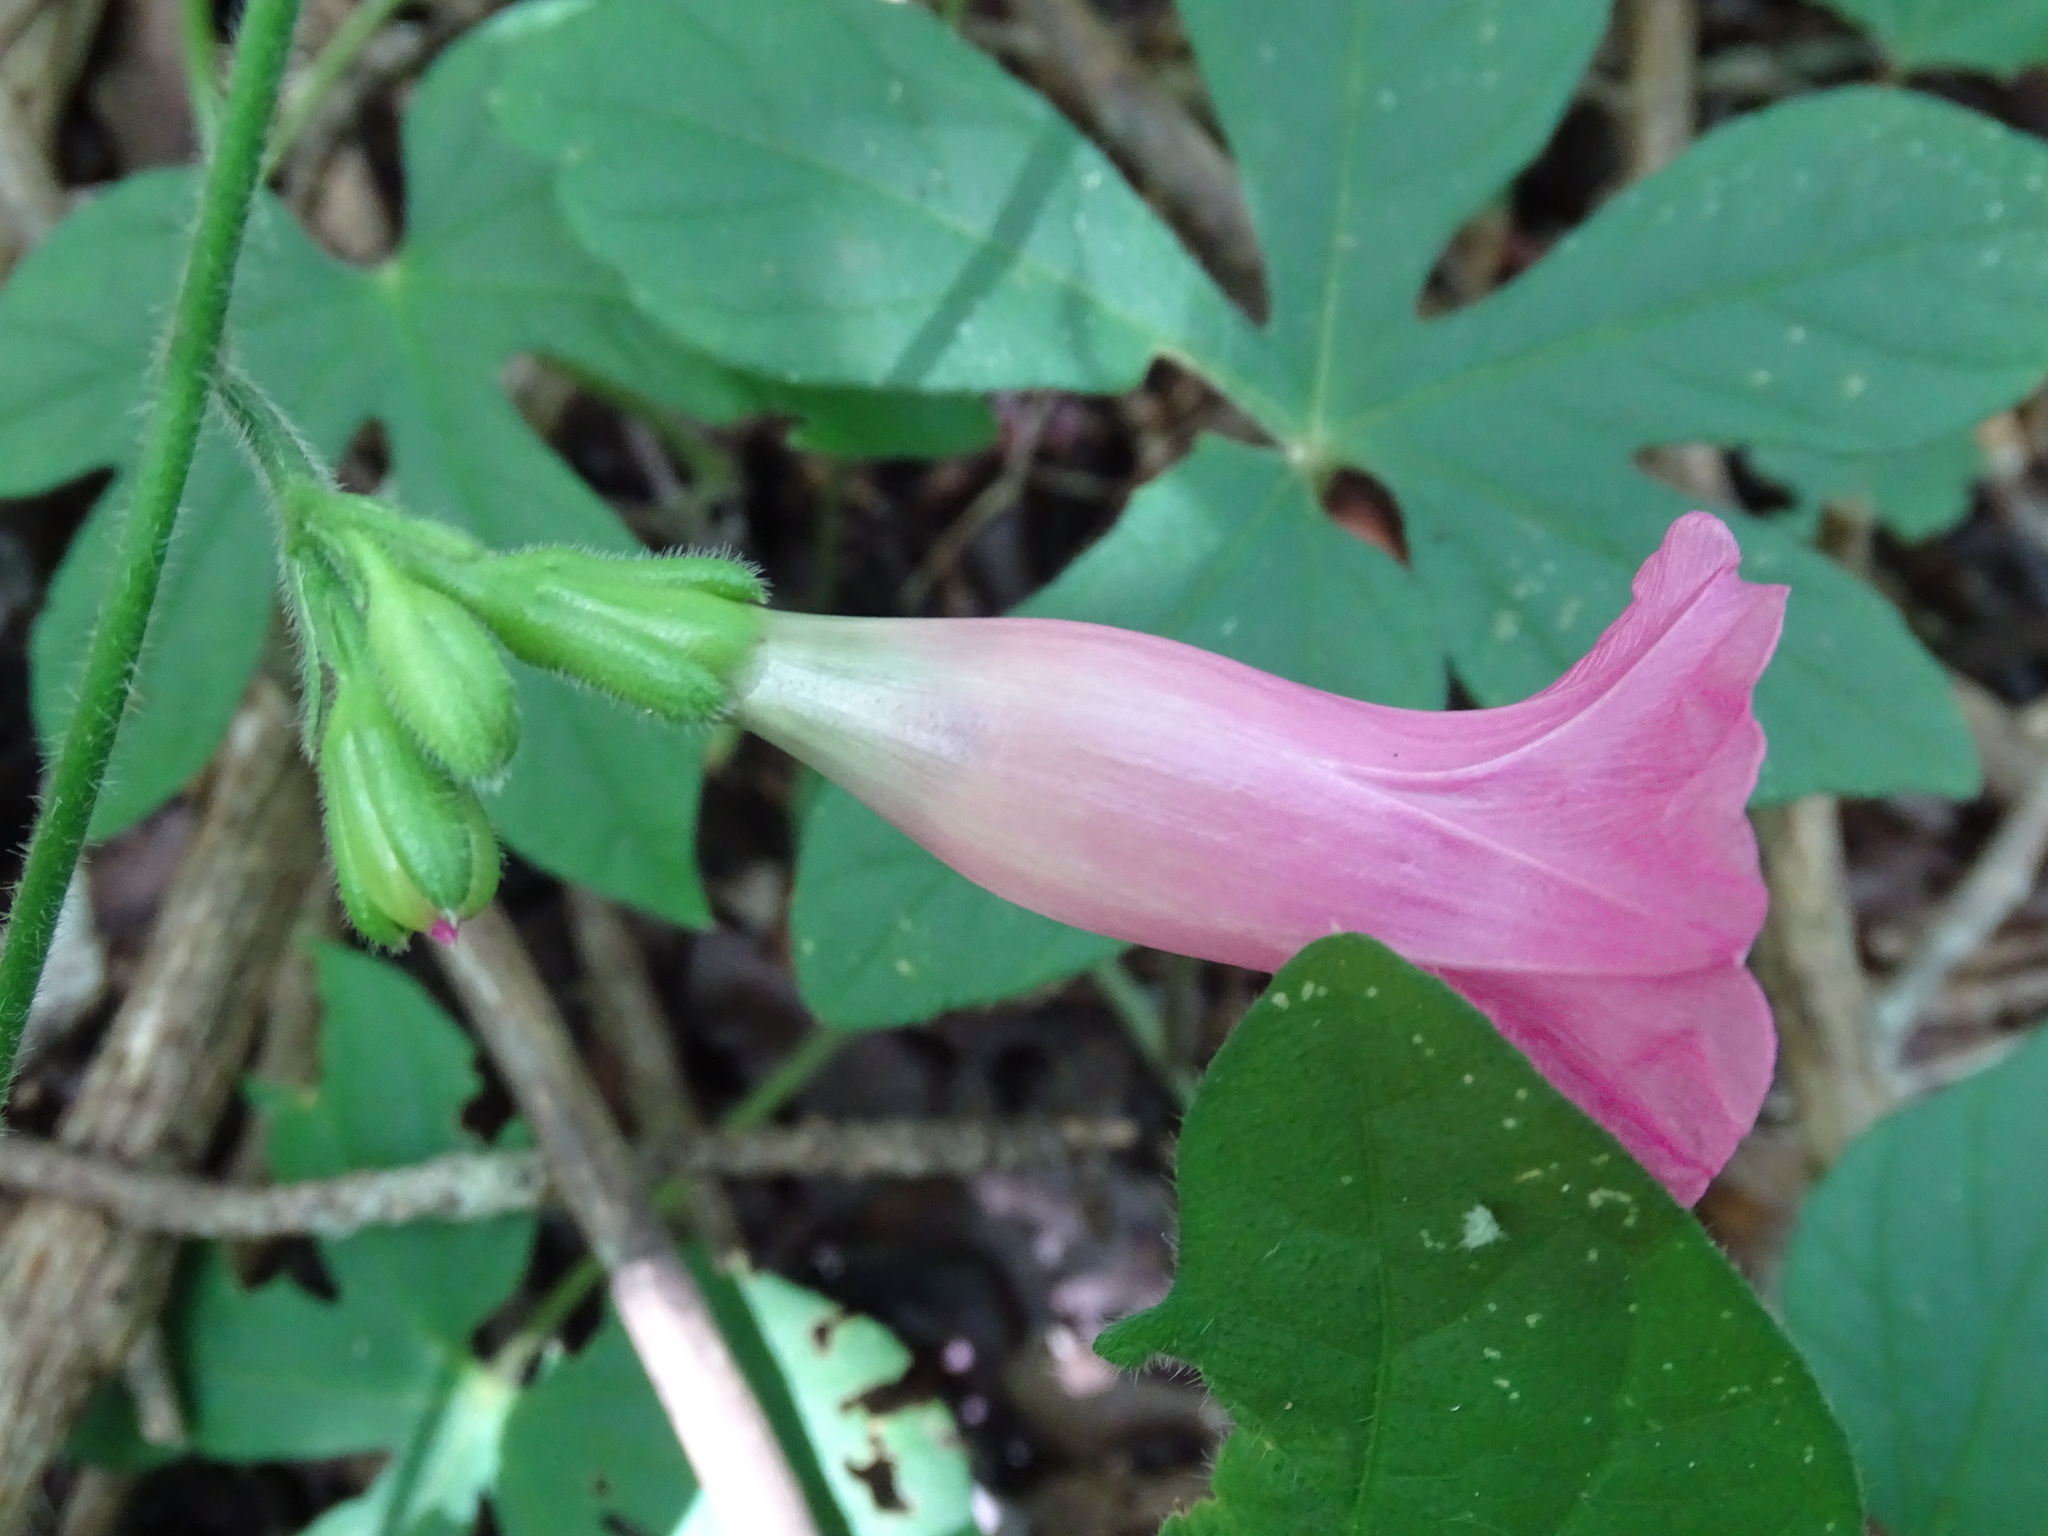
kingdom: Plantae
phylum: Tracheophyta
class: Magnoliopsida
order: Solanales
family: Convolvulaceae
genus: Ipomoea
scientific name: Ipomoea peteri
